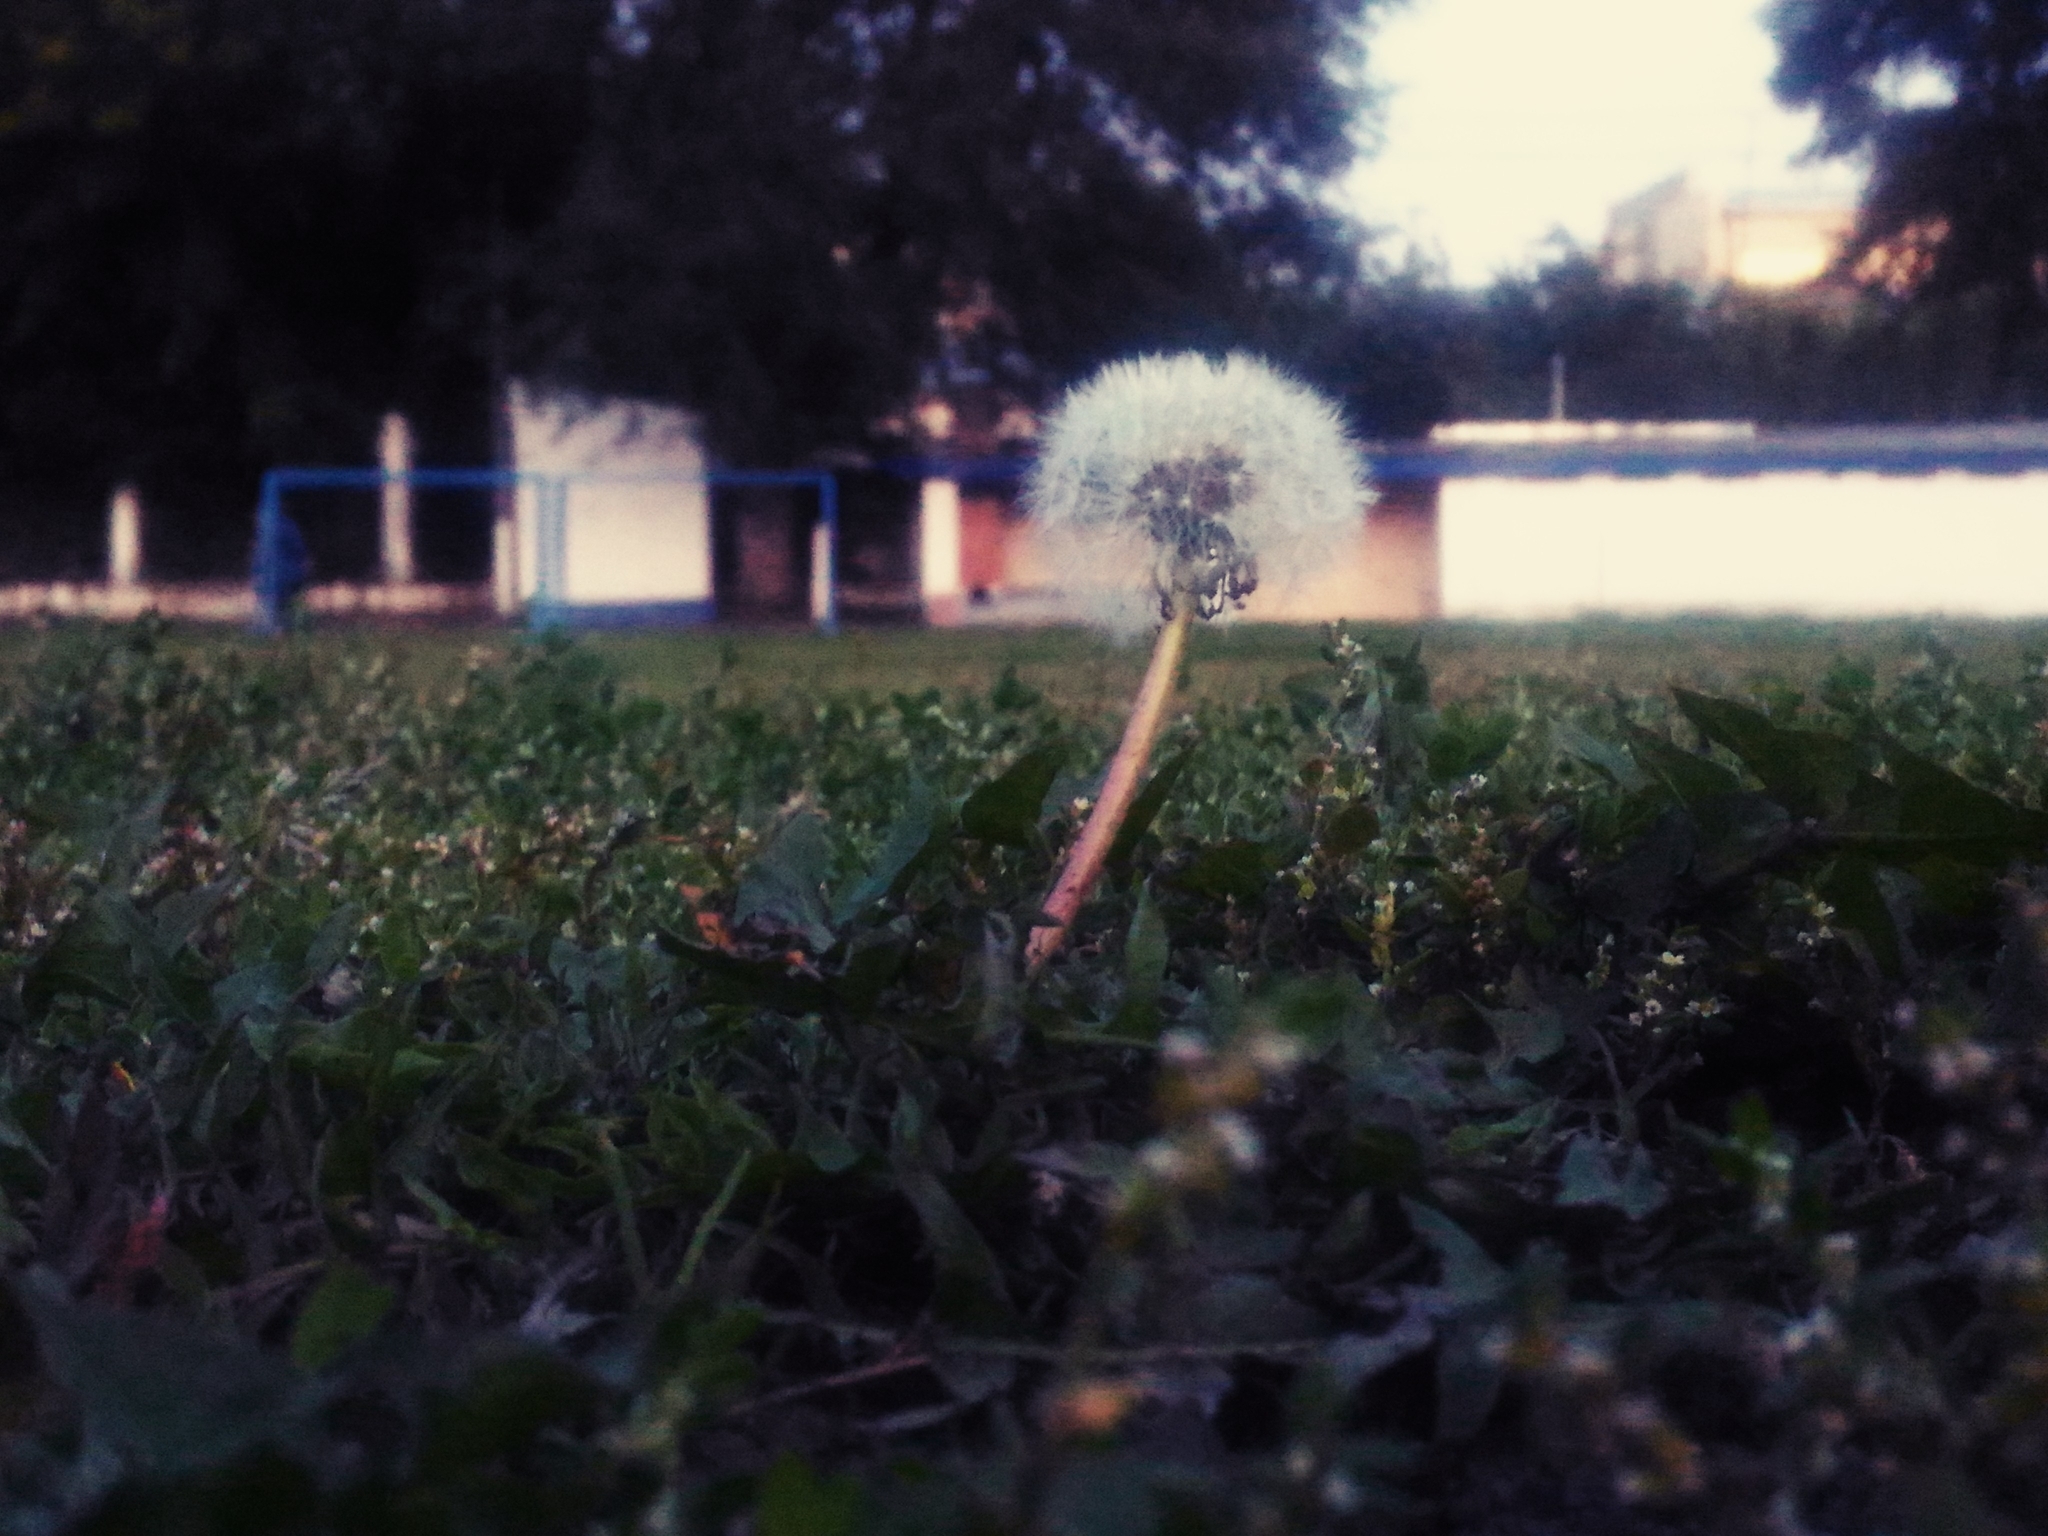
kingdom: Plantae
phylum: Tracheophyta
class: Magnoliopsida
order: Asterales
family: Asteraceae
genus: Taraxacum
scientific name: Taraxacum officinale
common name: Common dandelion
